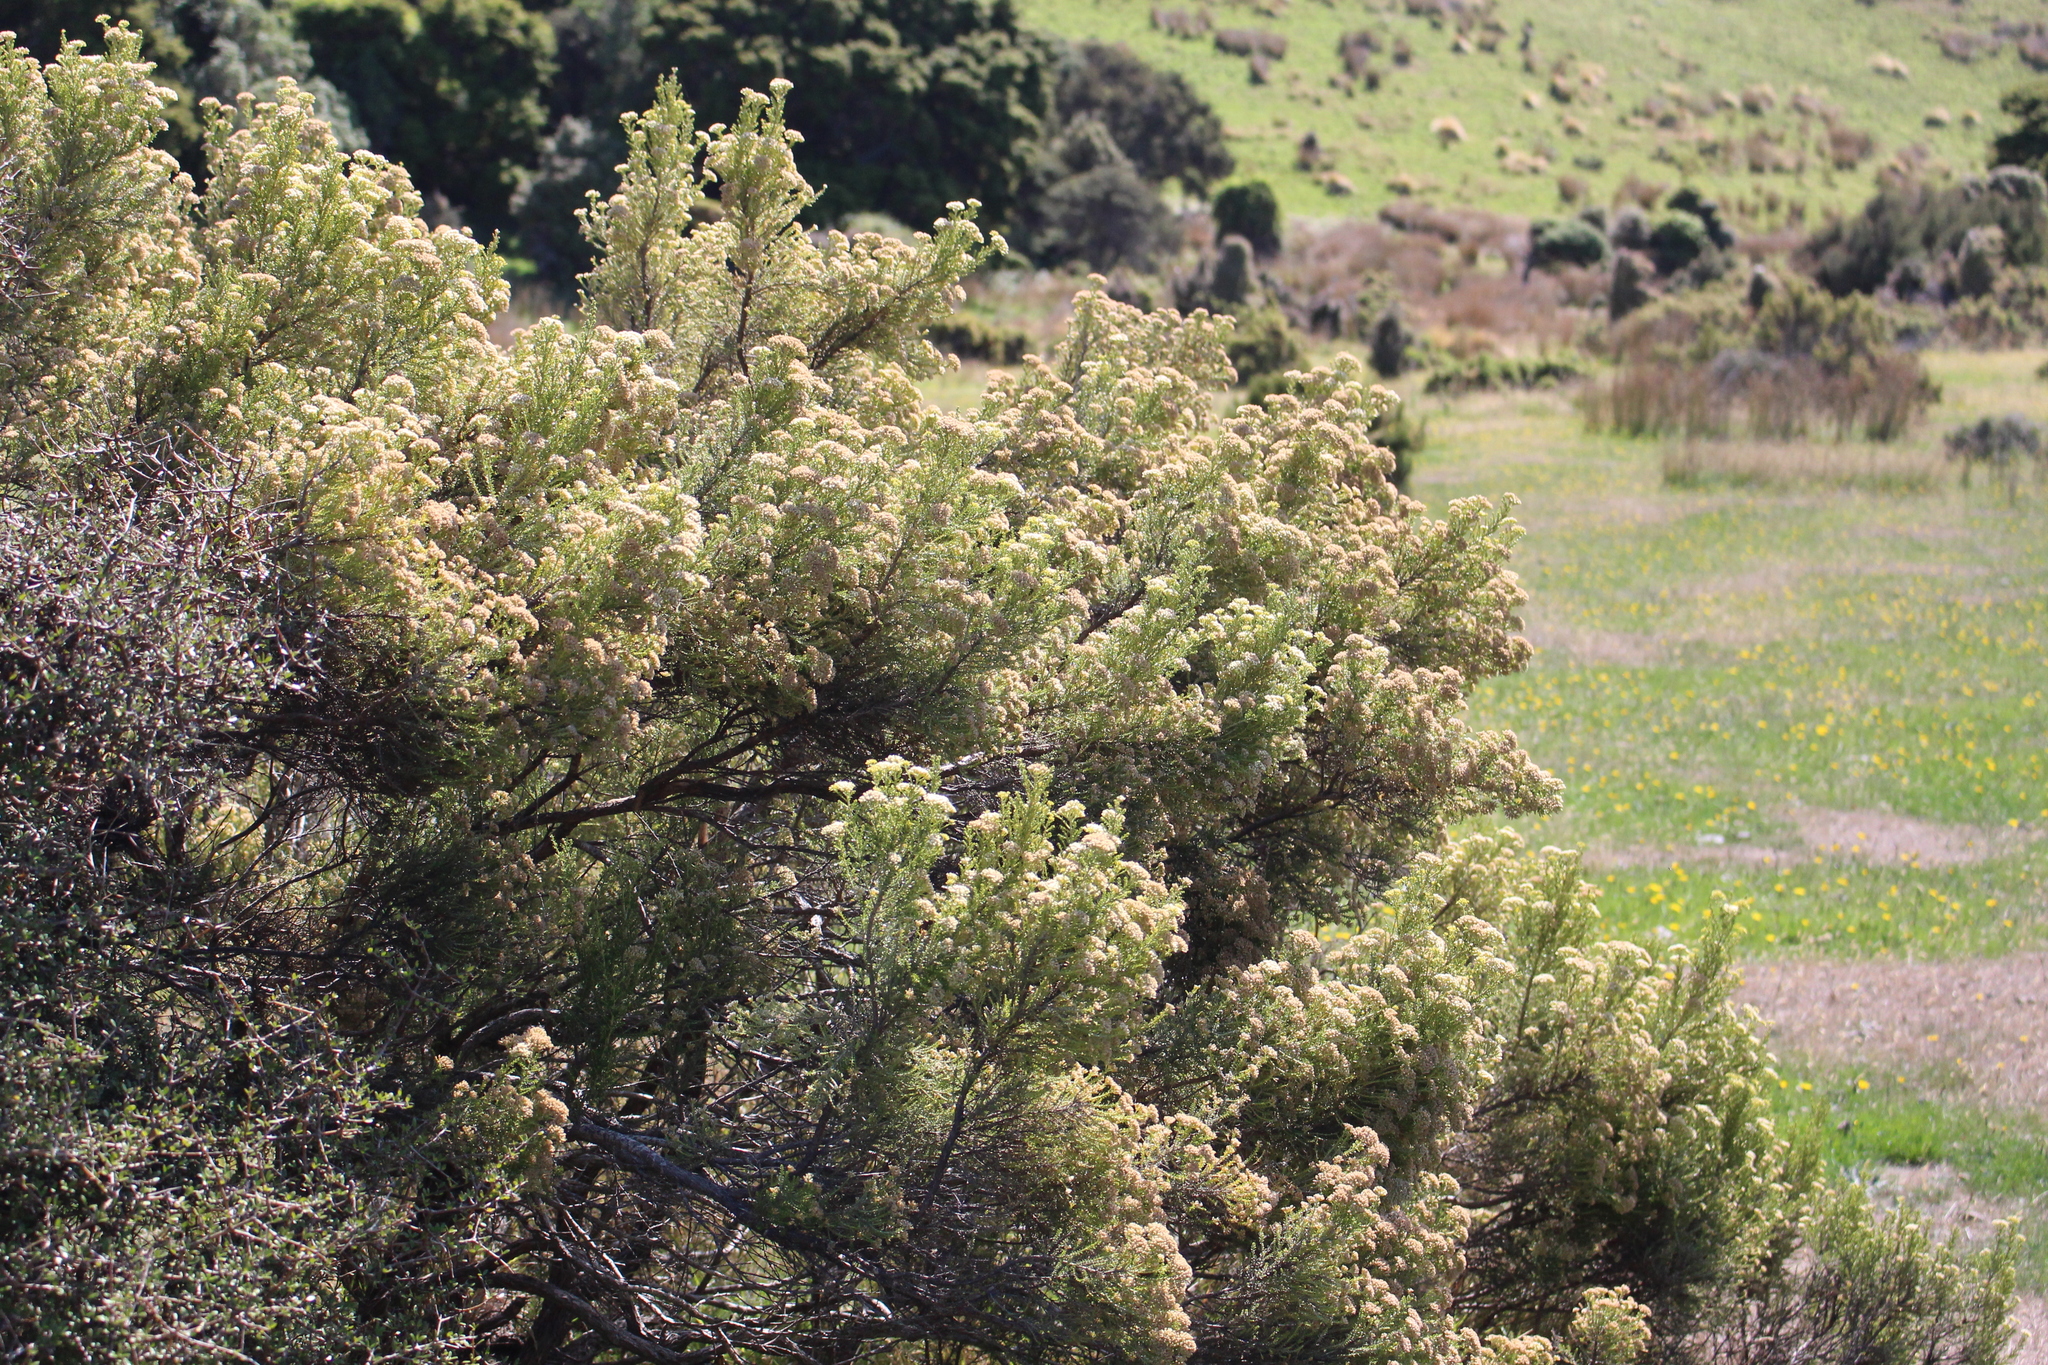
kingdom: Plantae
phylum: Tracheophyta
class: Magnoliopsida
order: Asterales
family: Asteraceae
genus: Ozothamnus
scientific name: Ozothamnus leptophyllus
